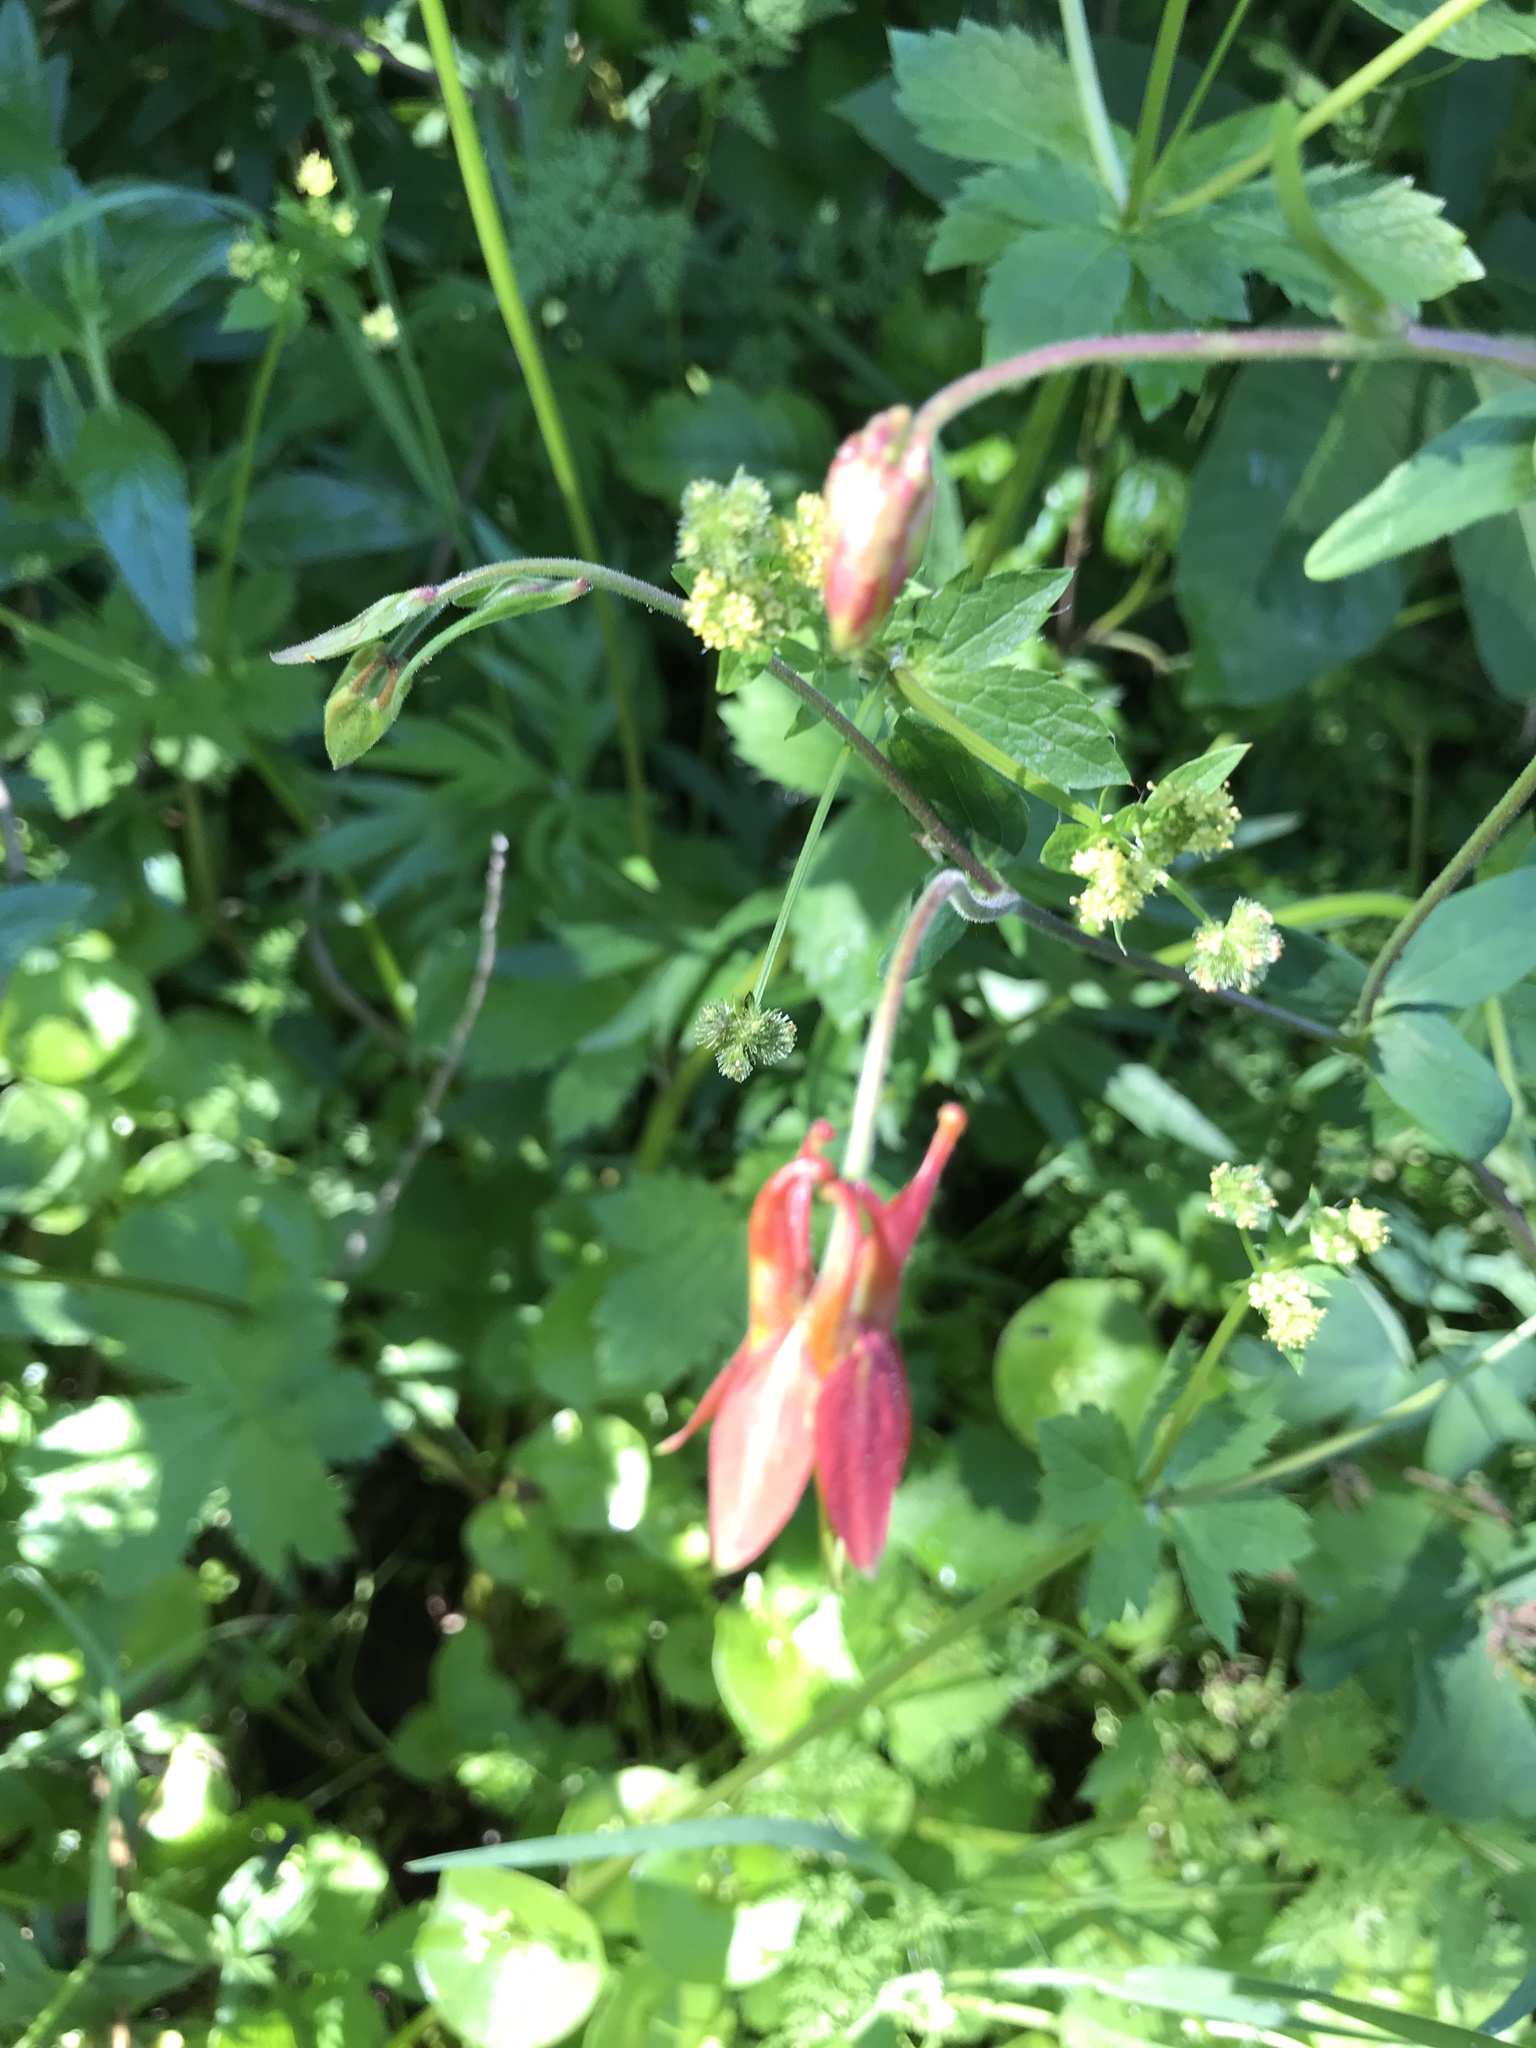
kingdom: Plantae
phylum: Tracheophyta
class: Magnoliopsida
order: Ranunculales
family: Ranunculaceae
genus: Aquilegia
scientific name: Aquilegia formosa
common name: Sitka columbine
